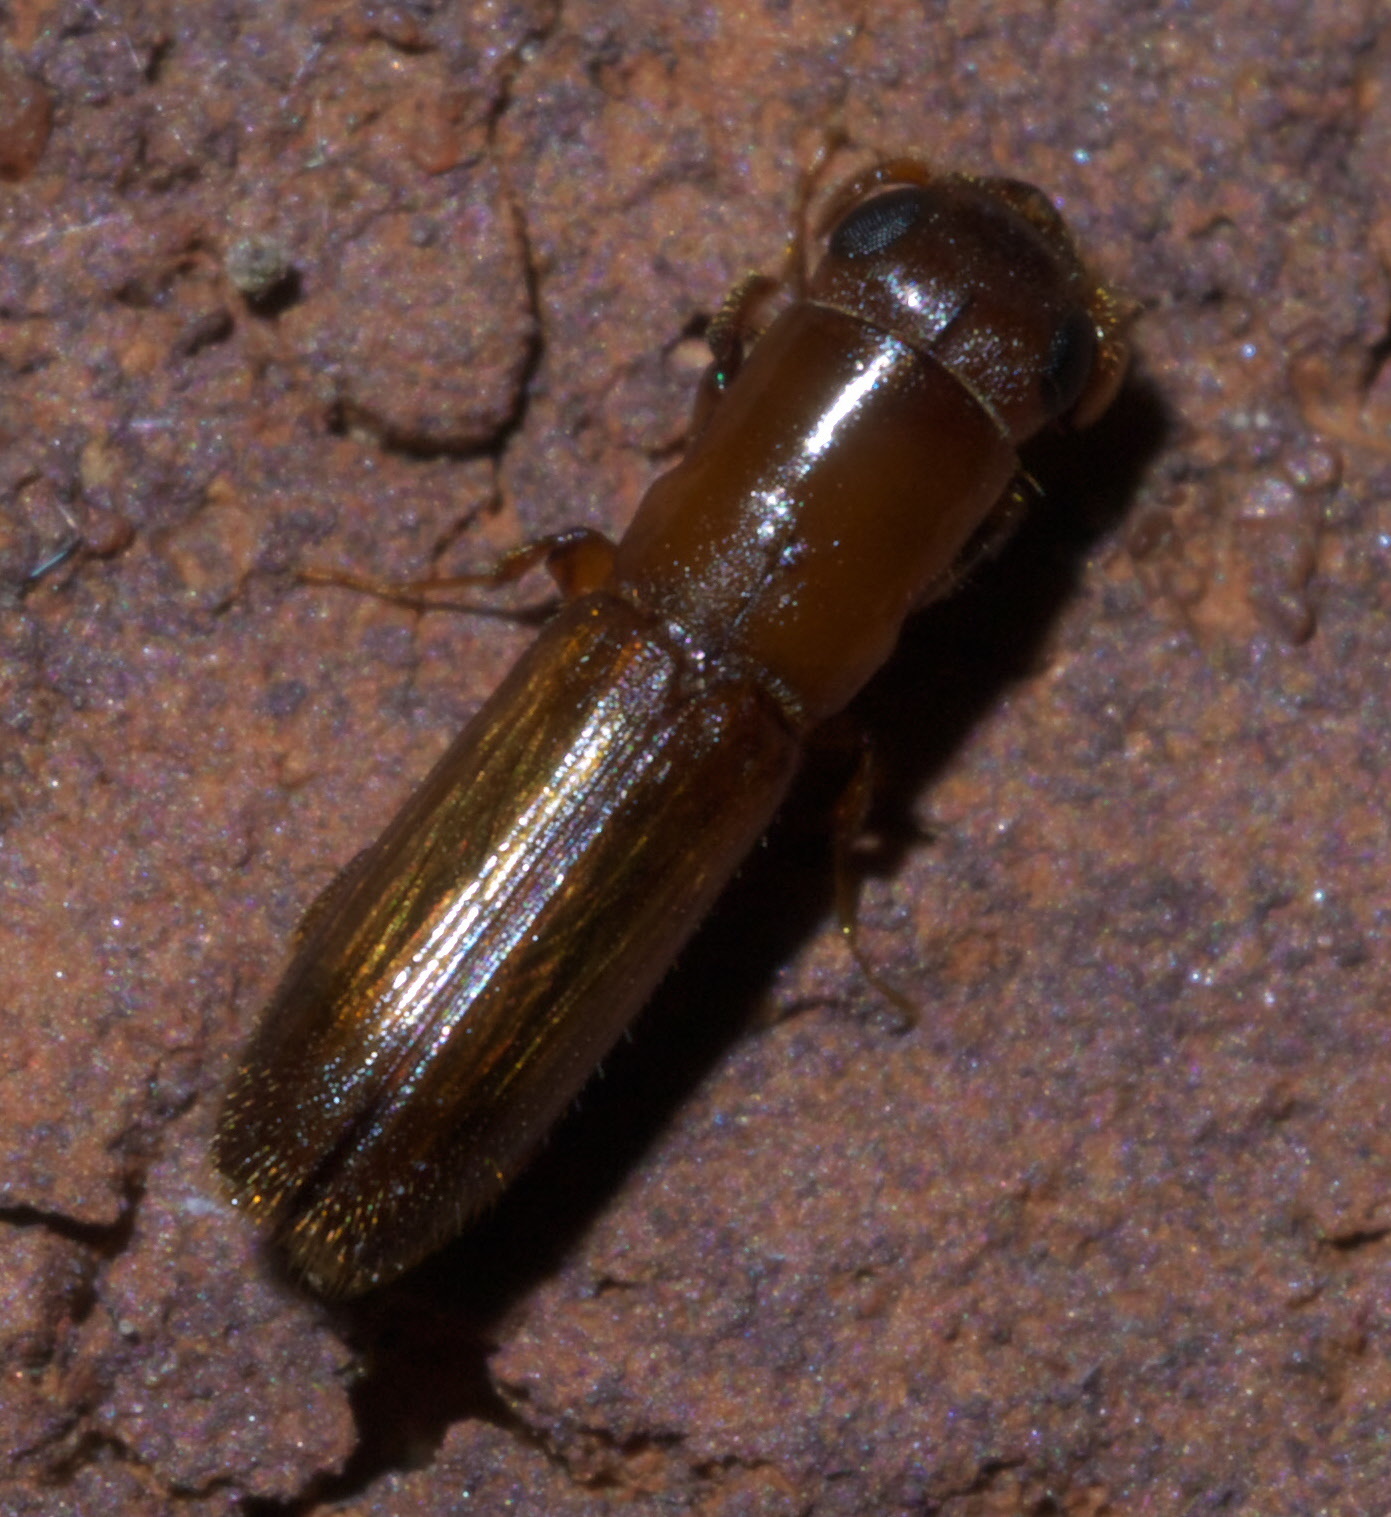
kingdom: Animalia
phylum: Arthropoda
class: Insecta
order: Coleoptera
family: Curculionidae
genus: Euplatypus
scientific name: Euplatypus compositus
